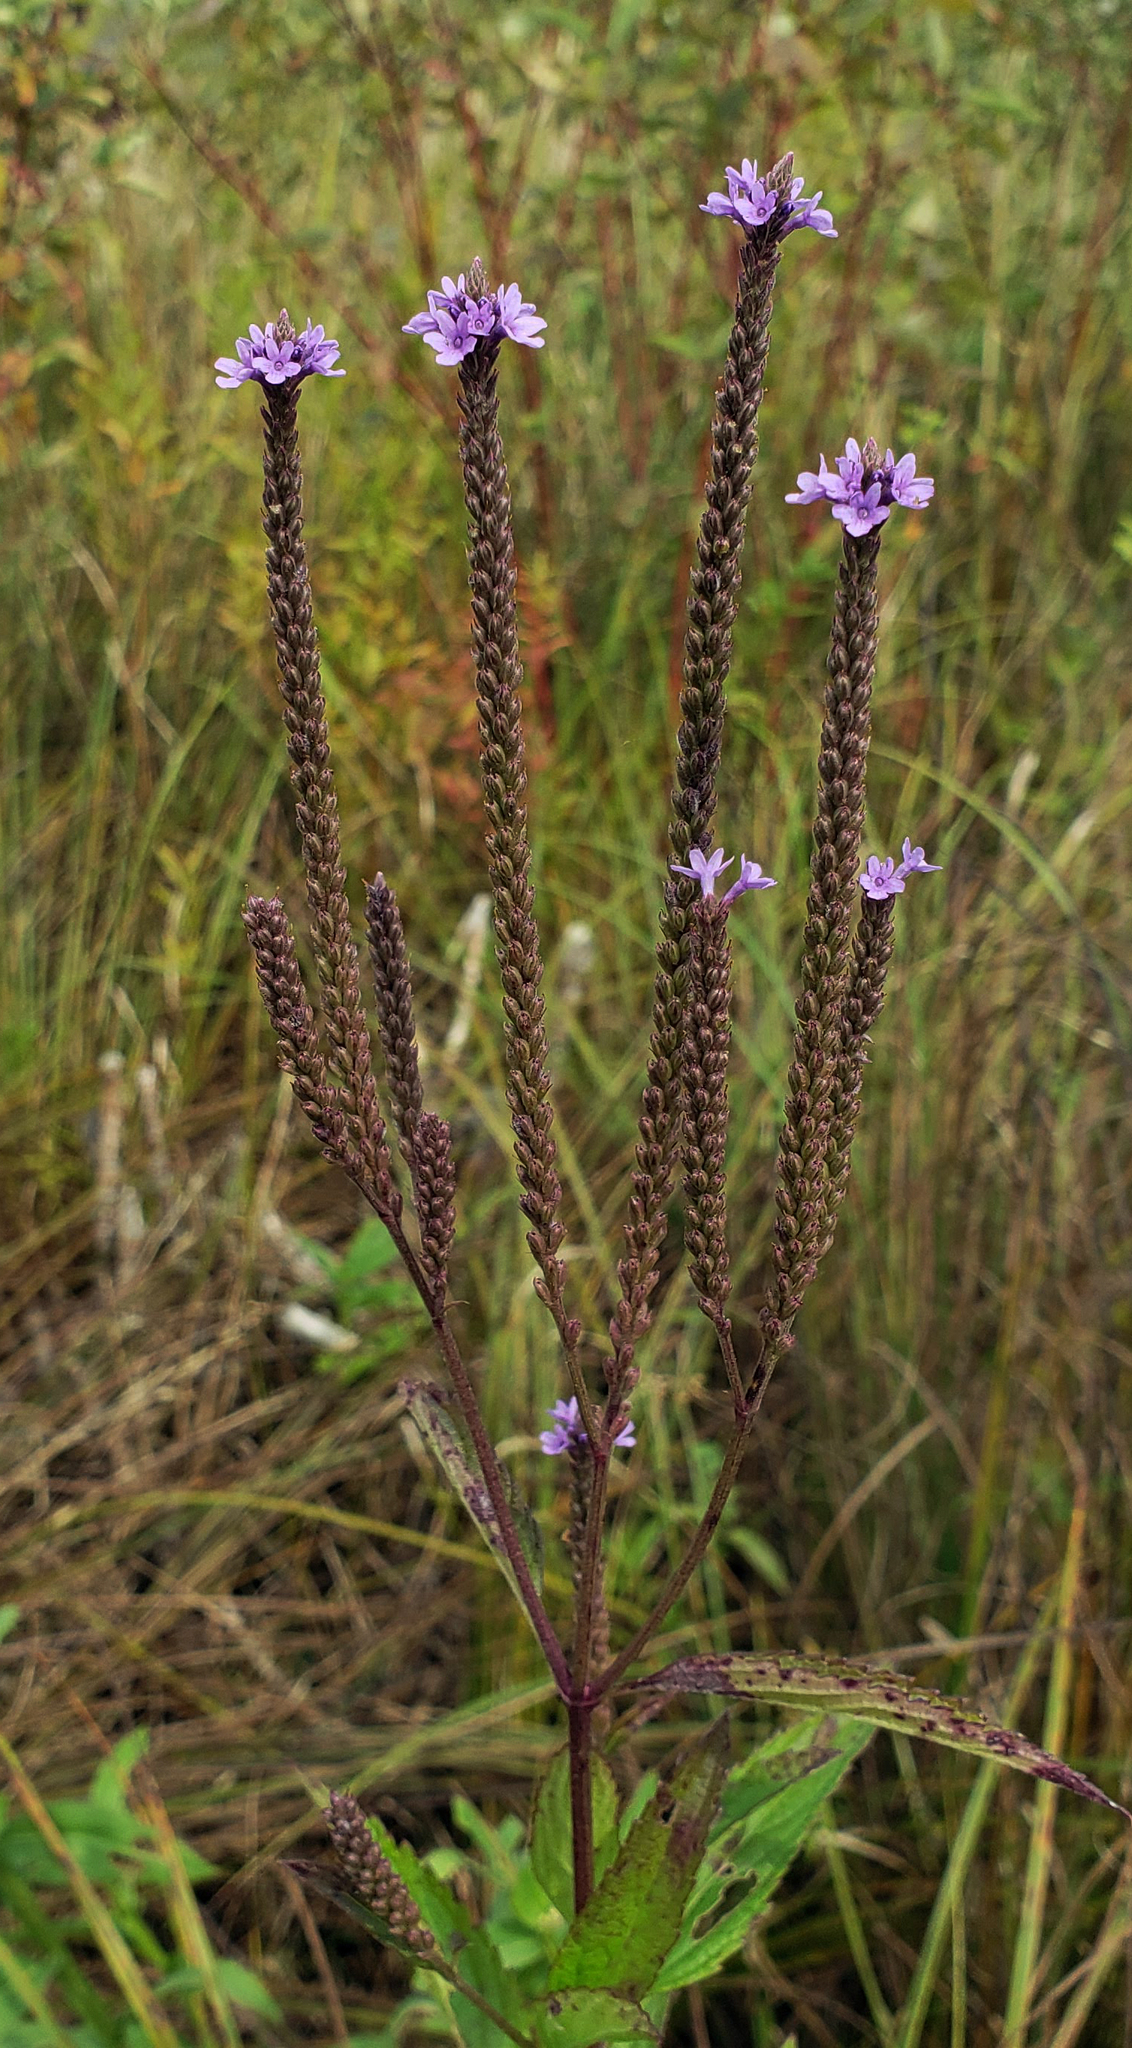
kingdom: Plantae
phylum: Tracheophyta
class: Magnoliopsida
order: Lamiales
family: Verbenaceae
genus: Verbena
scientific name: Verbena hastata
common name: American blue vervain
